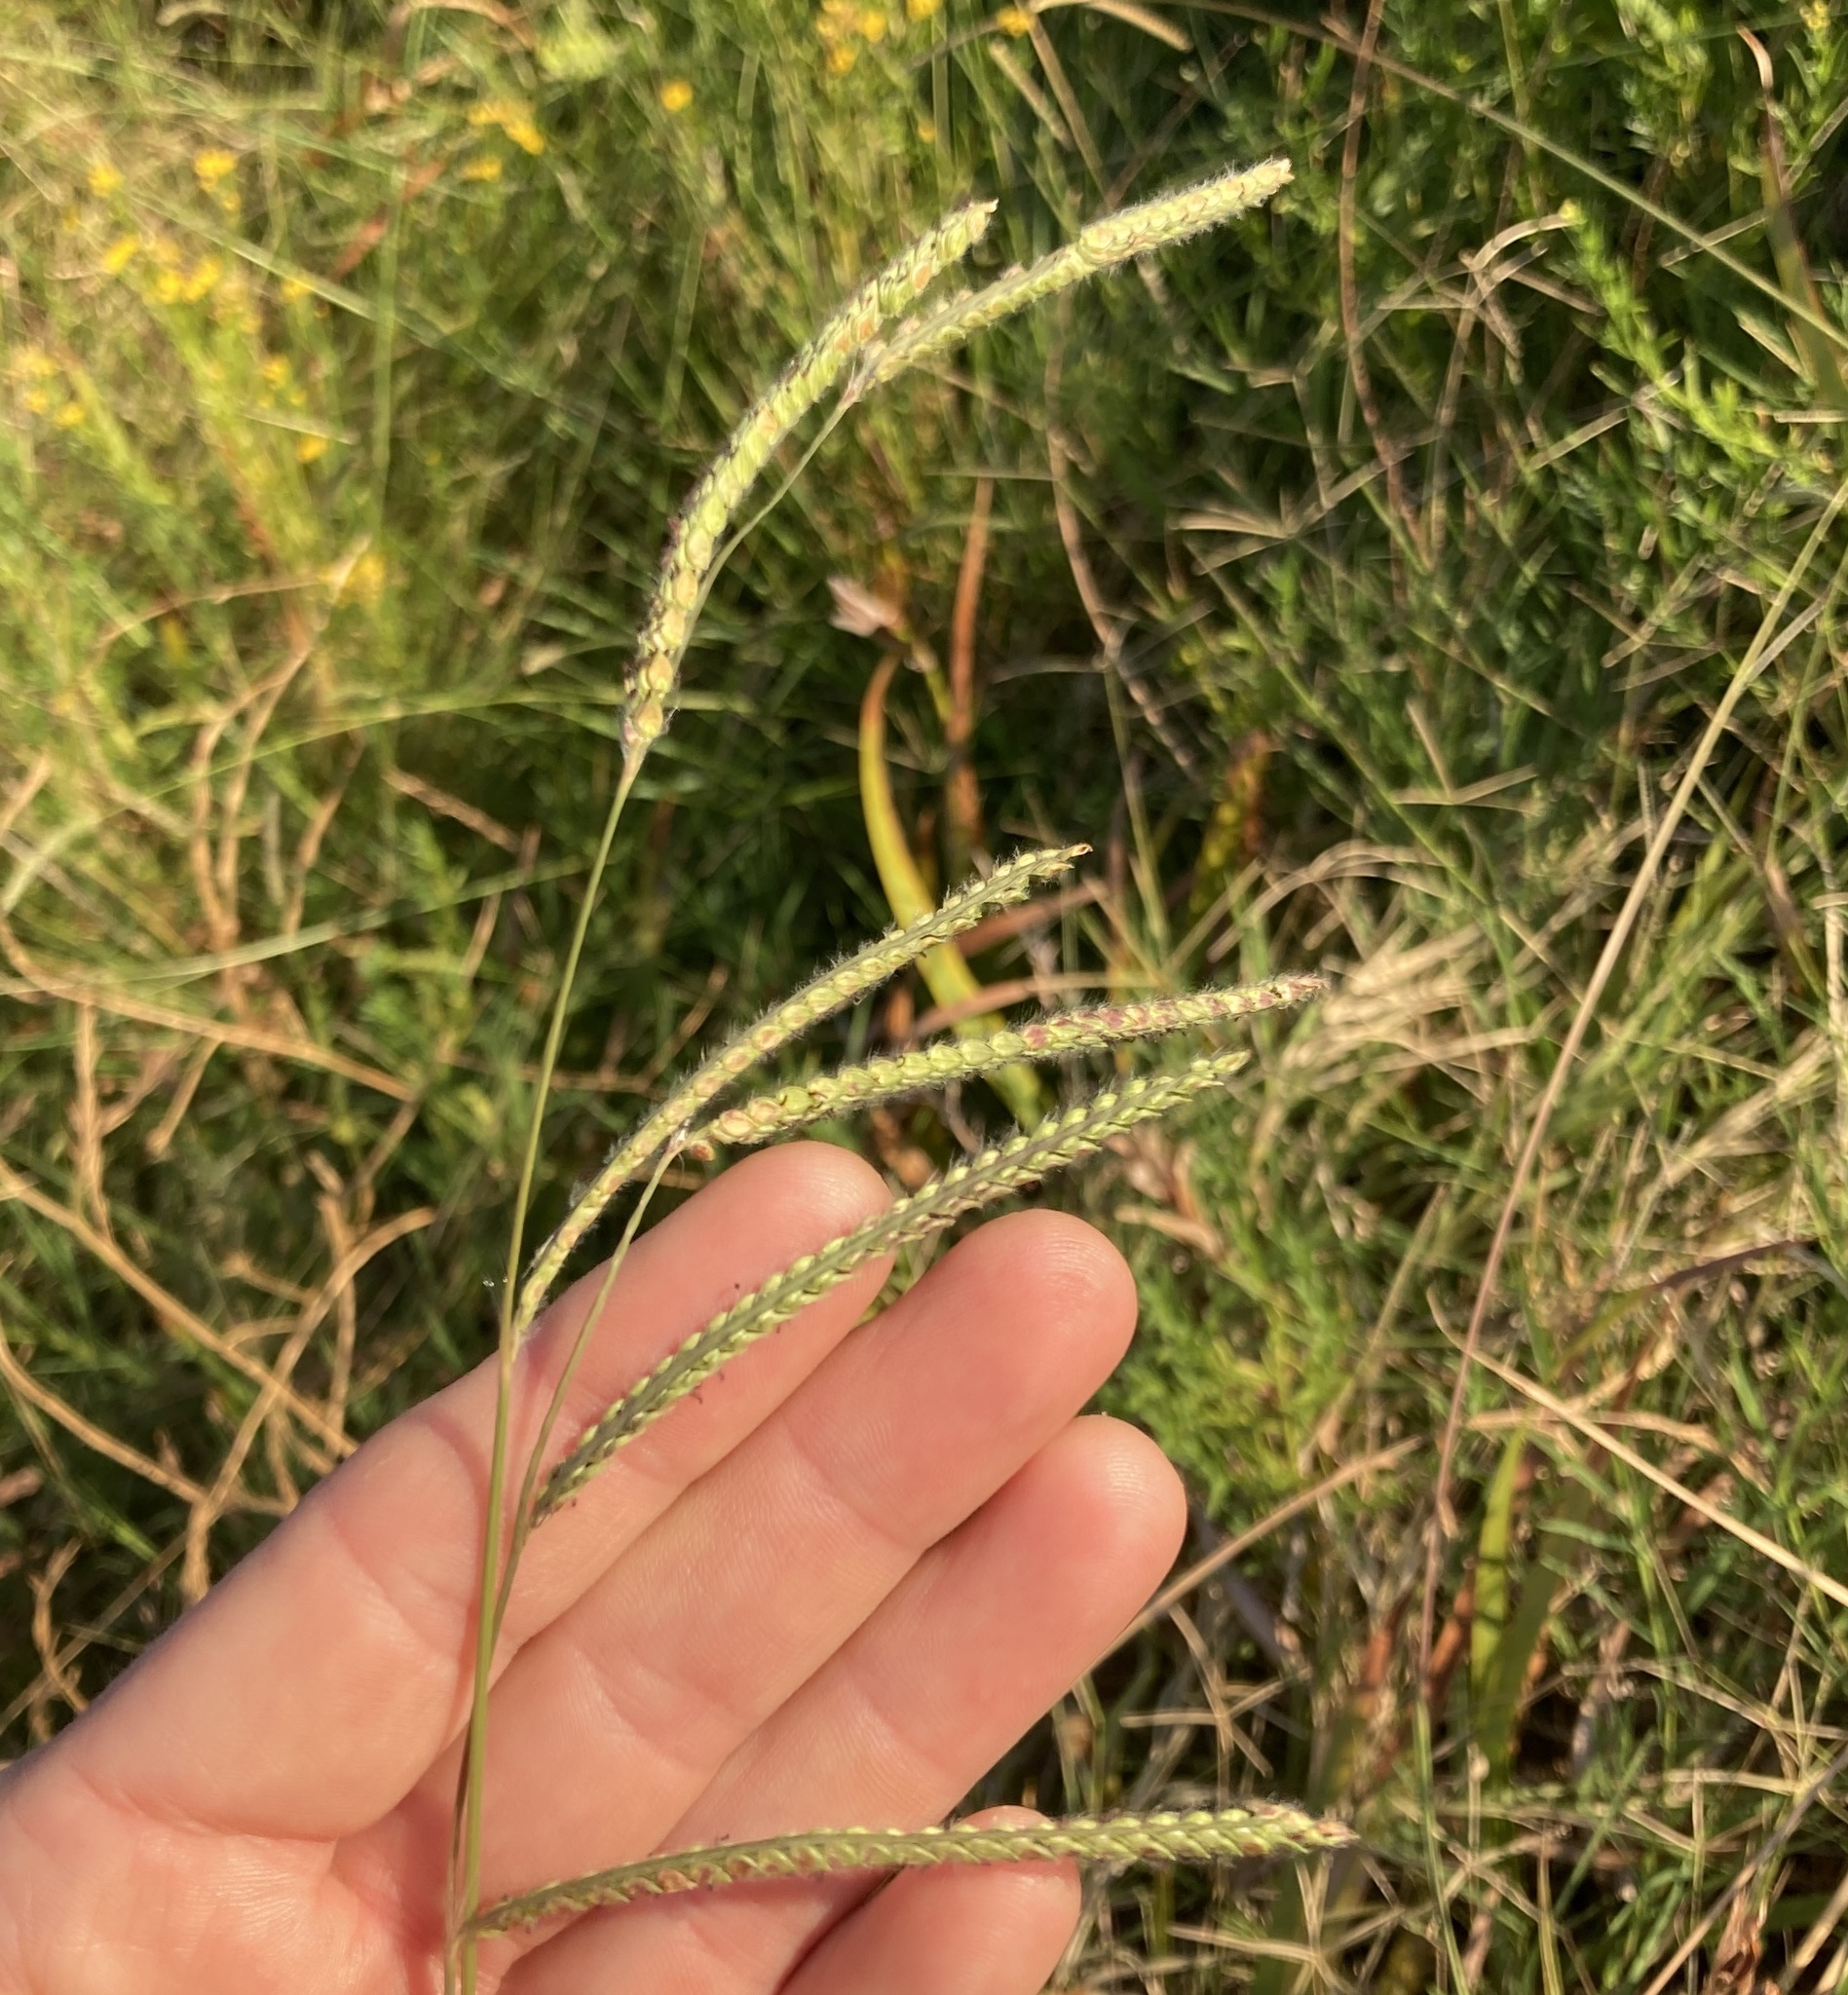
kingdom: Plantae
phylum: Tracheophyta
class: Liliopsida
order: Poales
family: Poaceae
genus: Paspalum
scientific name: Paspalum dilatatum
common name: Dallisgrass
